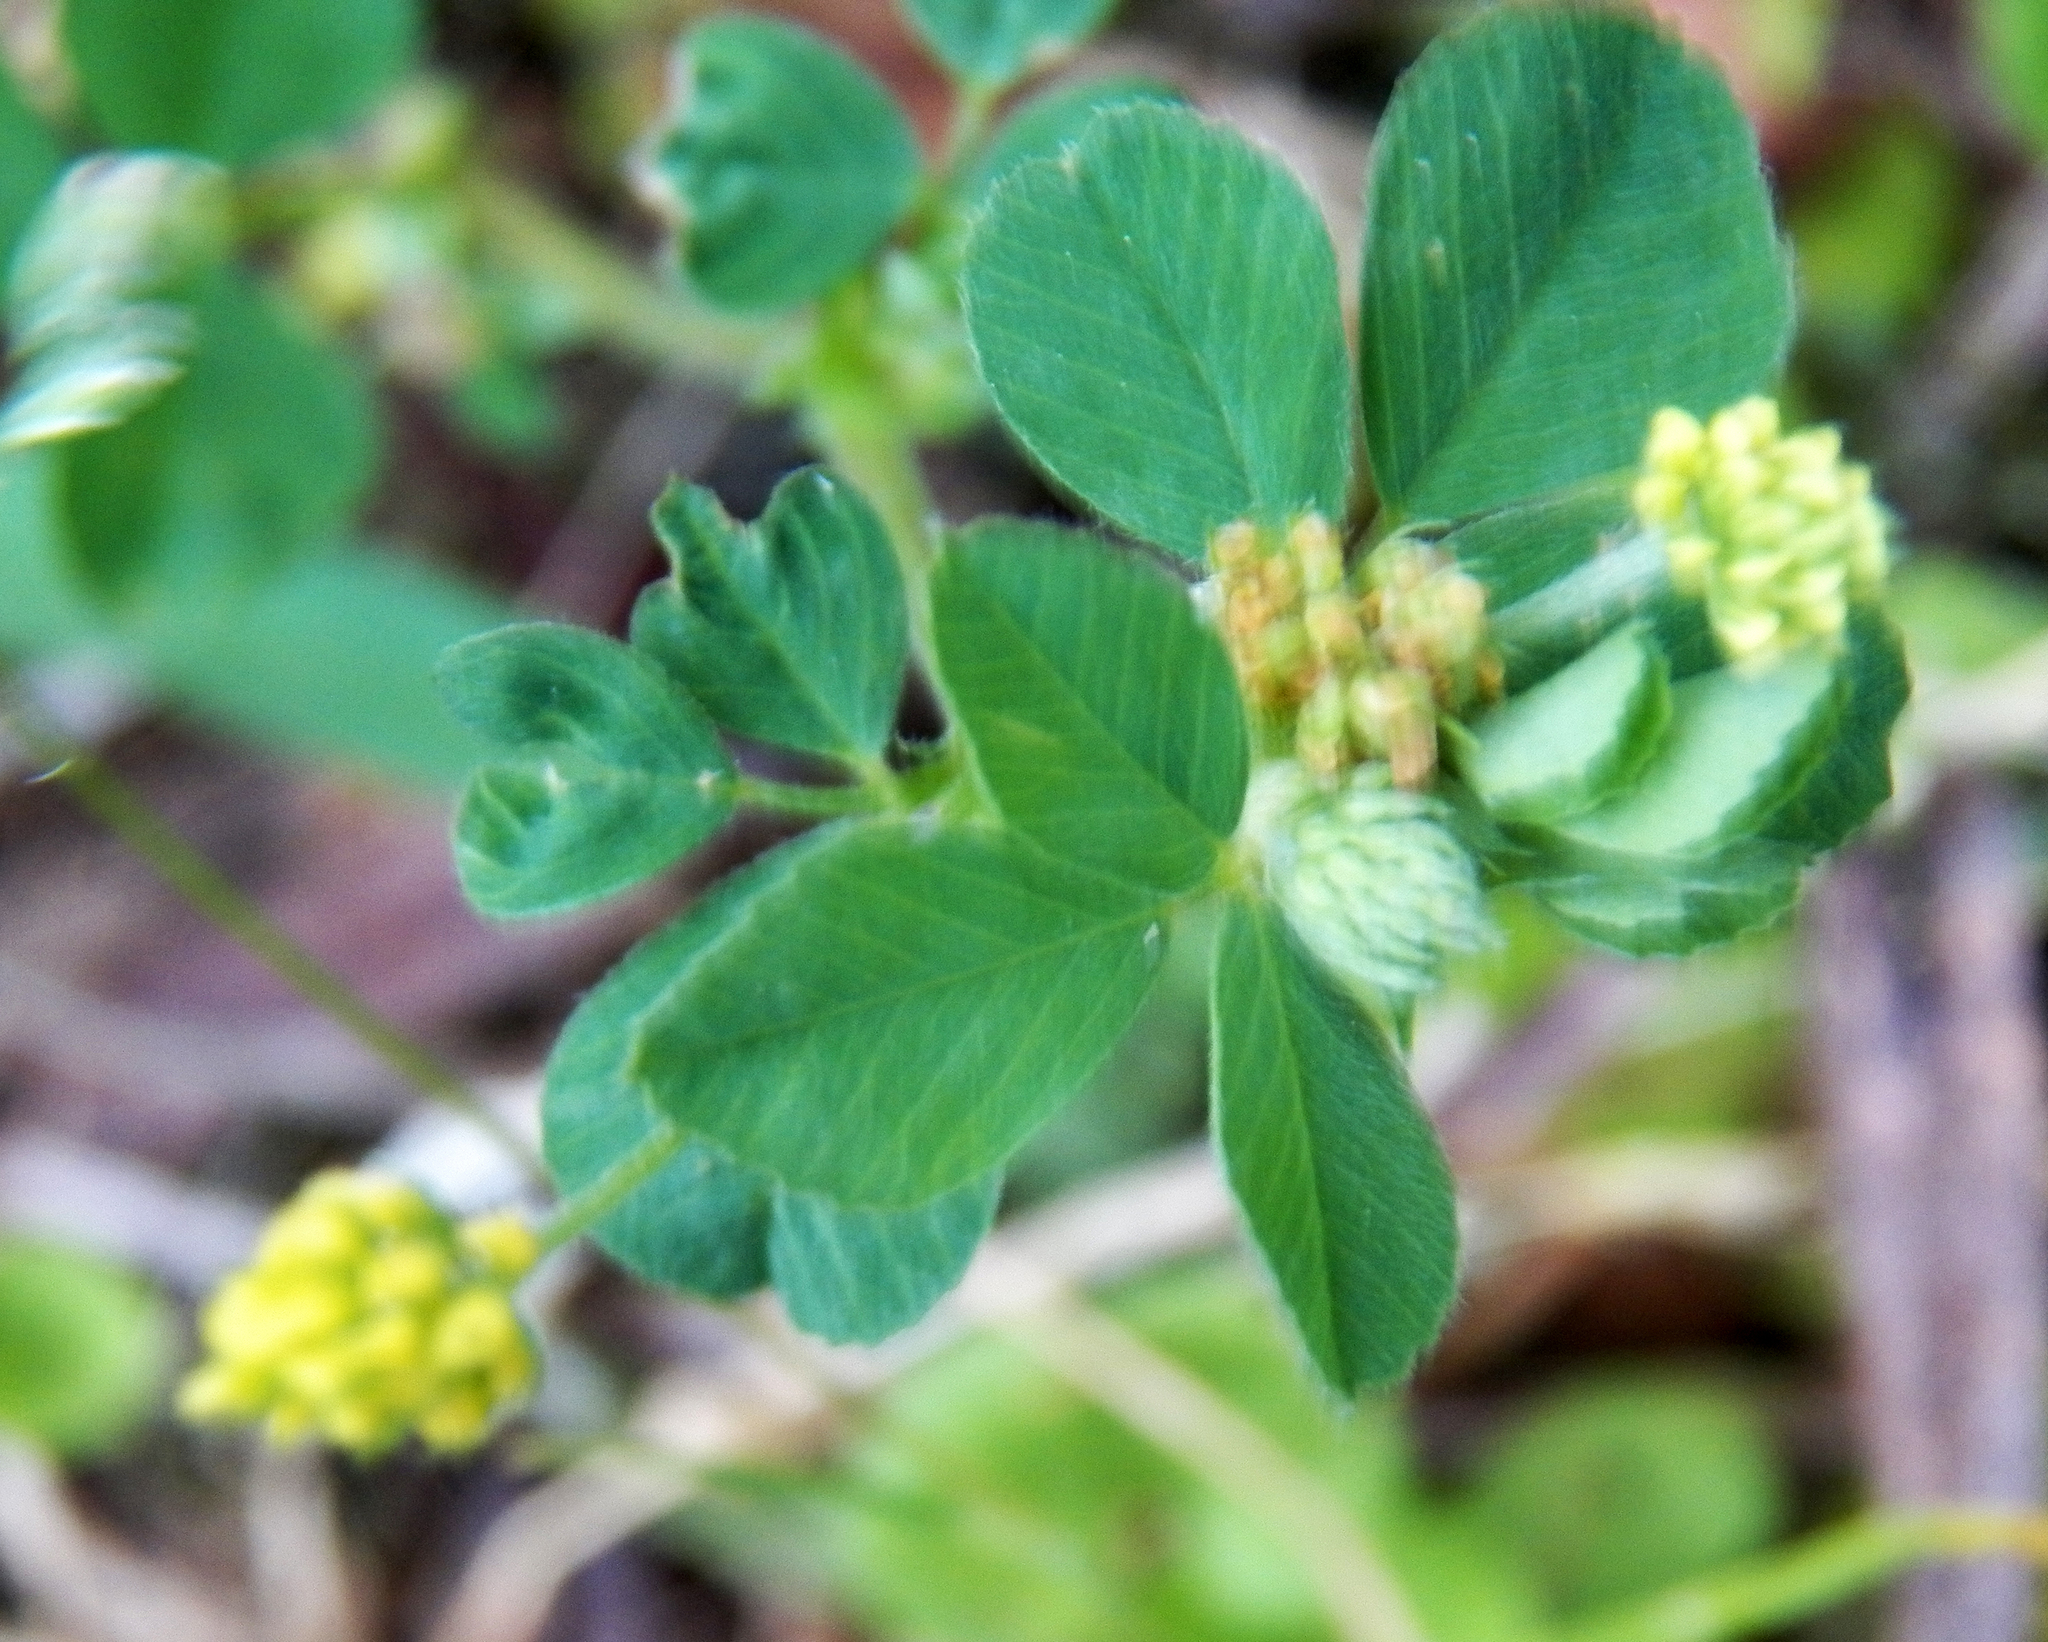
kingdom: Plantae
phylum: Tracheophyta
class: Magnoliopsida
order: Fabales
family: Fabaceae
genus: Medicago
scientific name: Medicago lupulina
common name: Black medick
